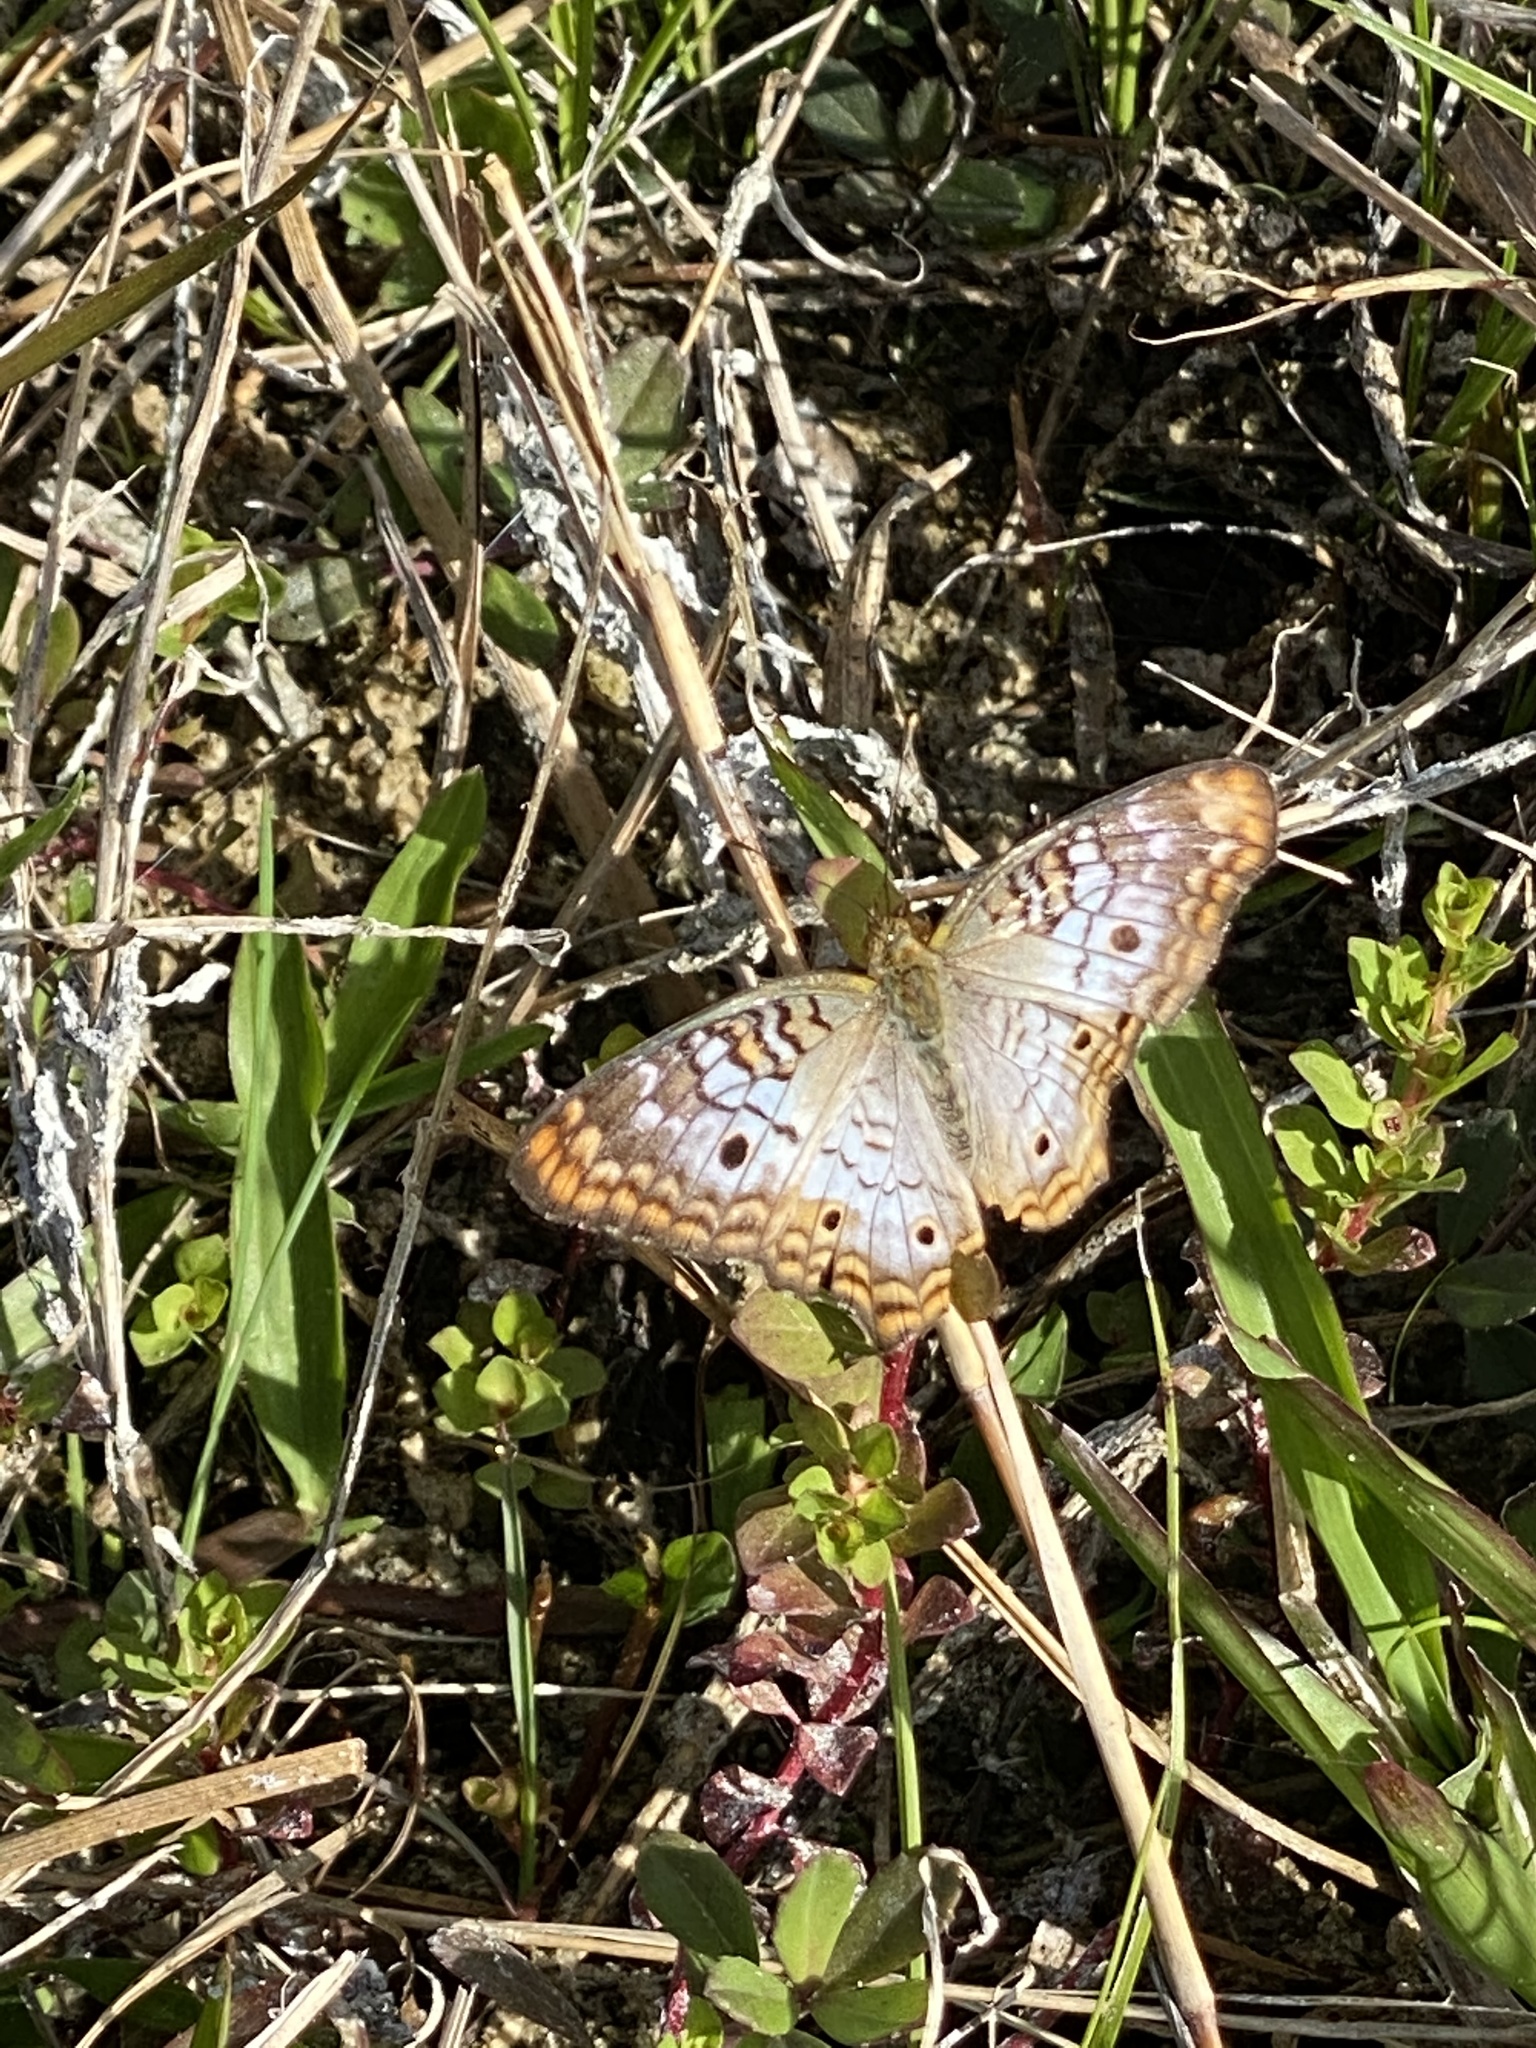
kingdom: Animalia
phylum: Arthropoda
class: Insecta
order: Lepidoptera
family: Nymphalidae
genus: Anartia
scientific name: Anartia jatrophae
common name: White peacock
